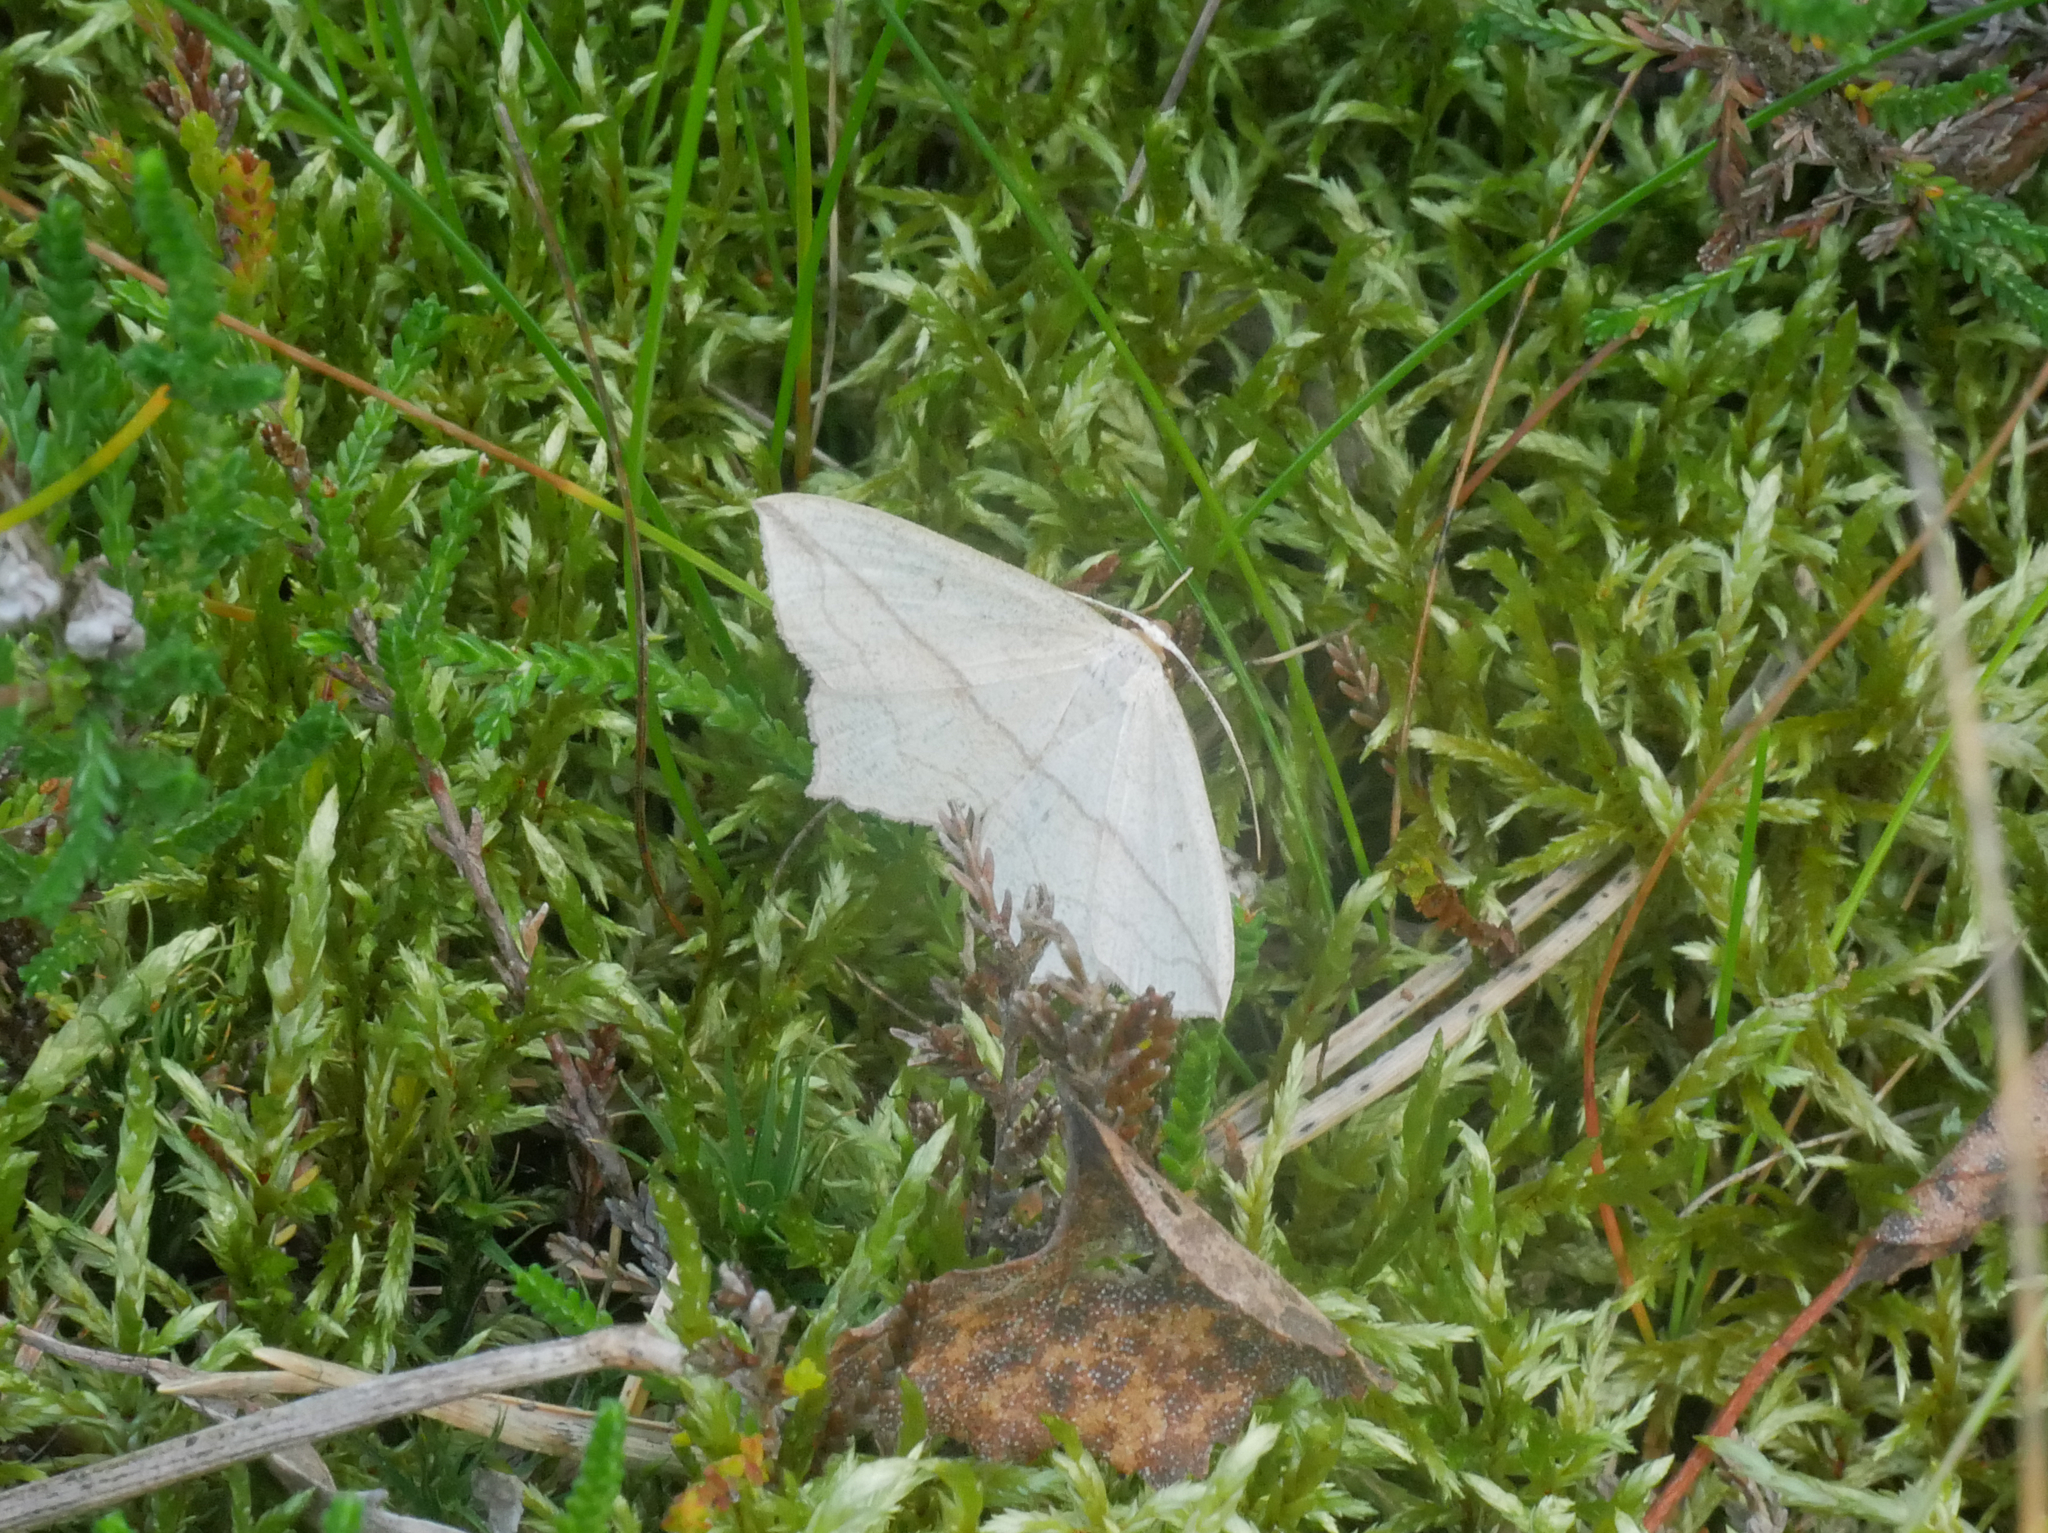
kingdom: Animalia
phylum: Arthropoda
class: Insecta
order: Lepidoptera
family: Geometridae
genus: Timandra
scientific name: Timandra comae
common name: Blood-vein
